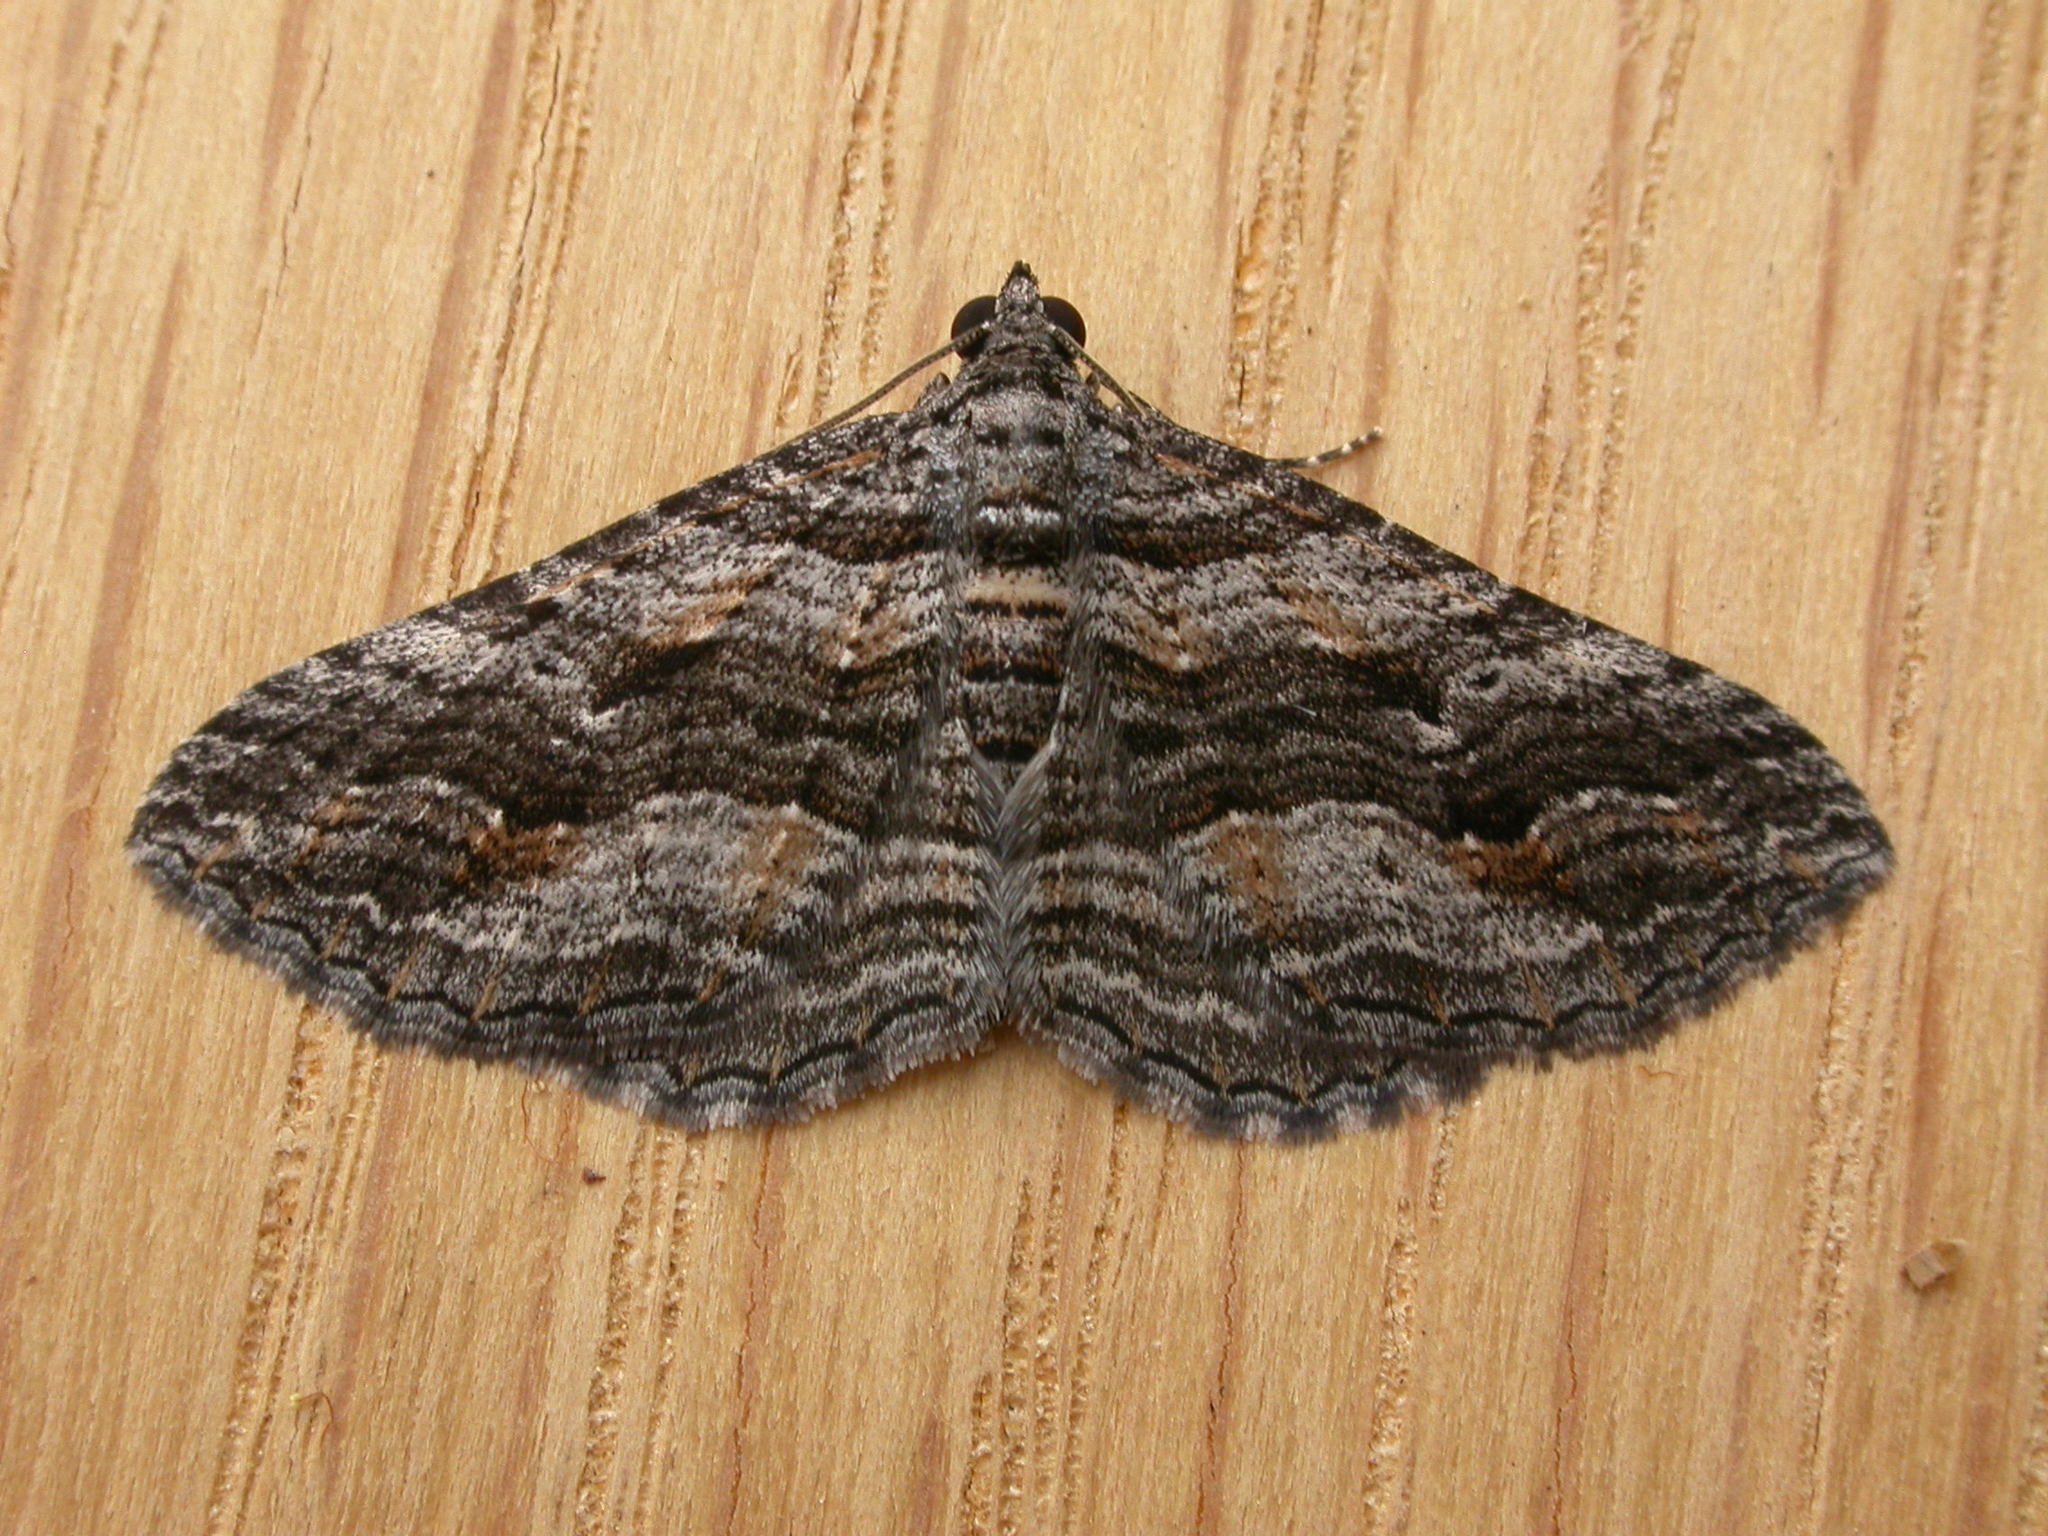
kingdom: Animalia
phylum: Arthropoda
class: Insecta
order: Lepidoptera
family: Geometridae
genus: Chrysolarentia
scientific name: Chrysolarentia severata
